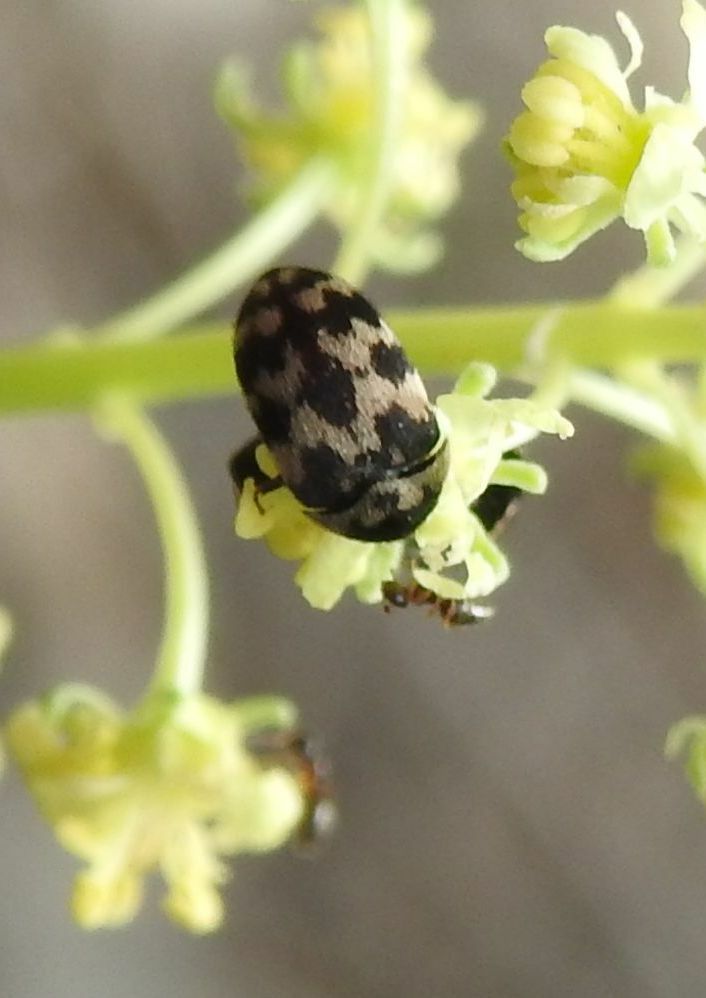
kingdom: Animalia
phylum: Arthropoda
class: Insecta
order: Coleoptera
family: Dermestidae
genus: Attagenus
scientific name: Attagenus trifasciatus
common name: Carpet beetle
